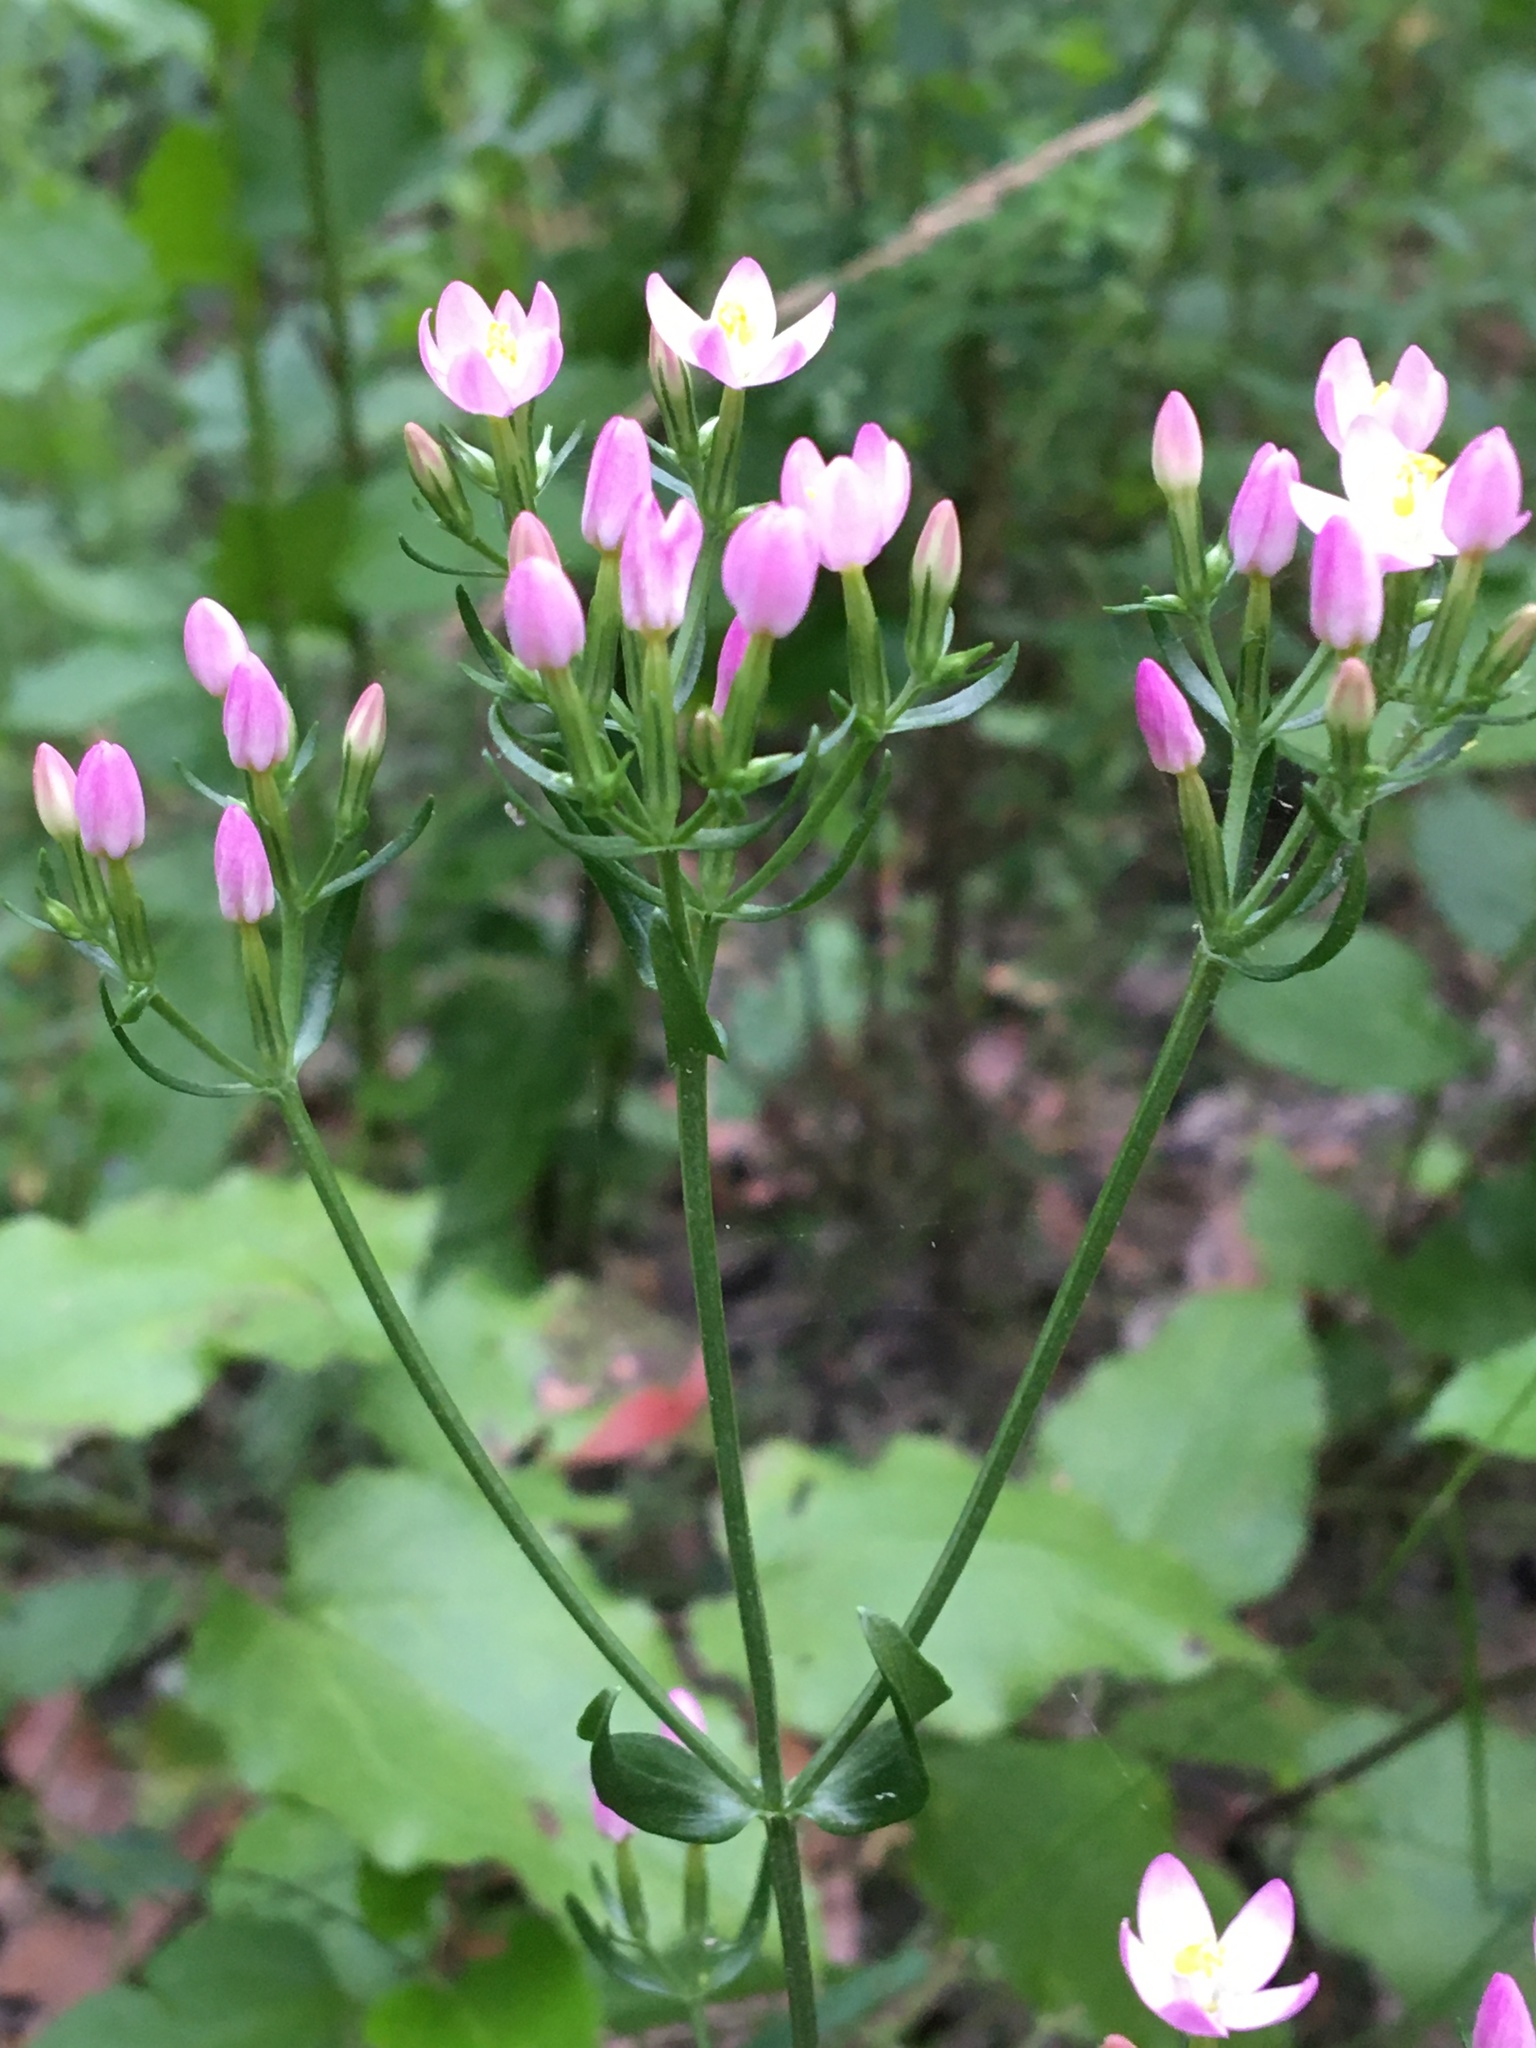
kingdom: Plantae
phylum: Tracheophyta
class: Magnoliopsida
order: Gentianales
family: Gentianaceae
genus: Centaurium
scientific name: Centaurium erythraea
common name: Common centaury
